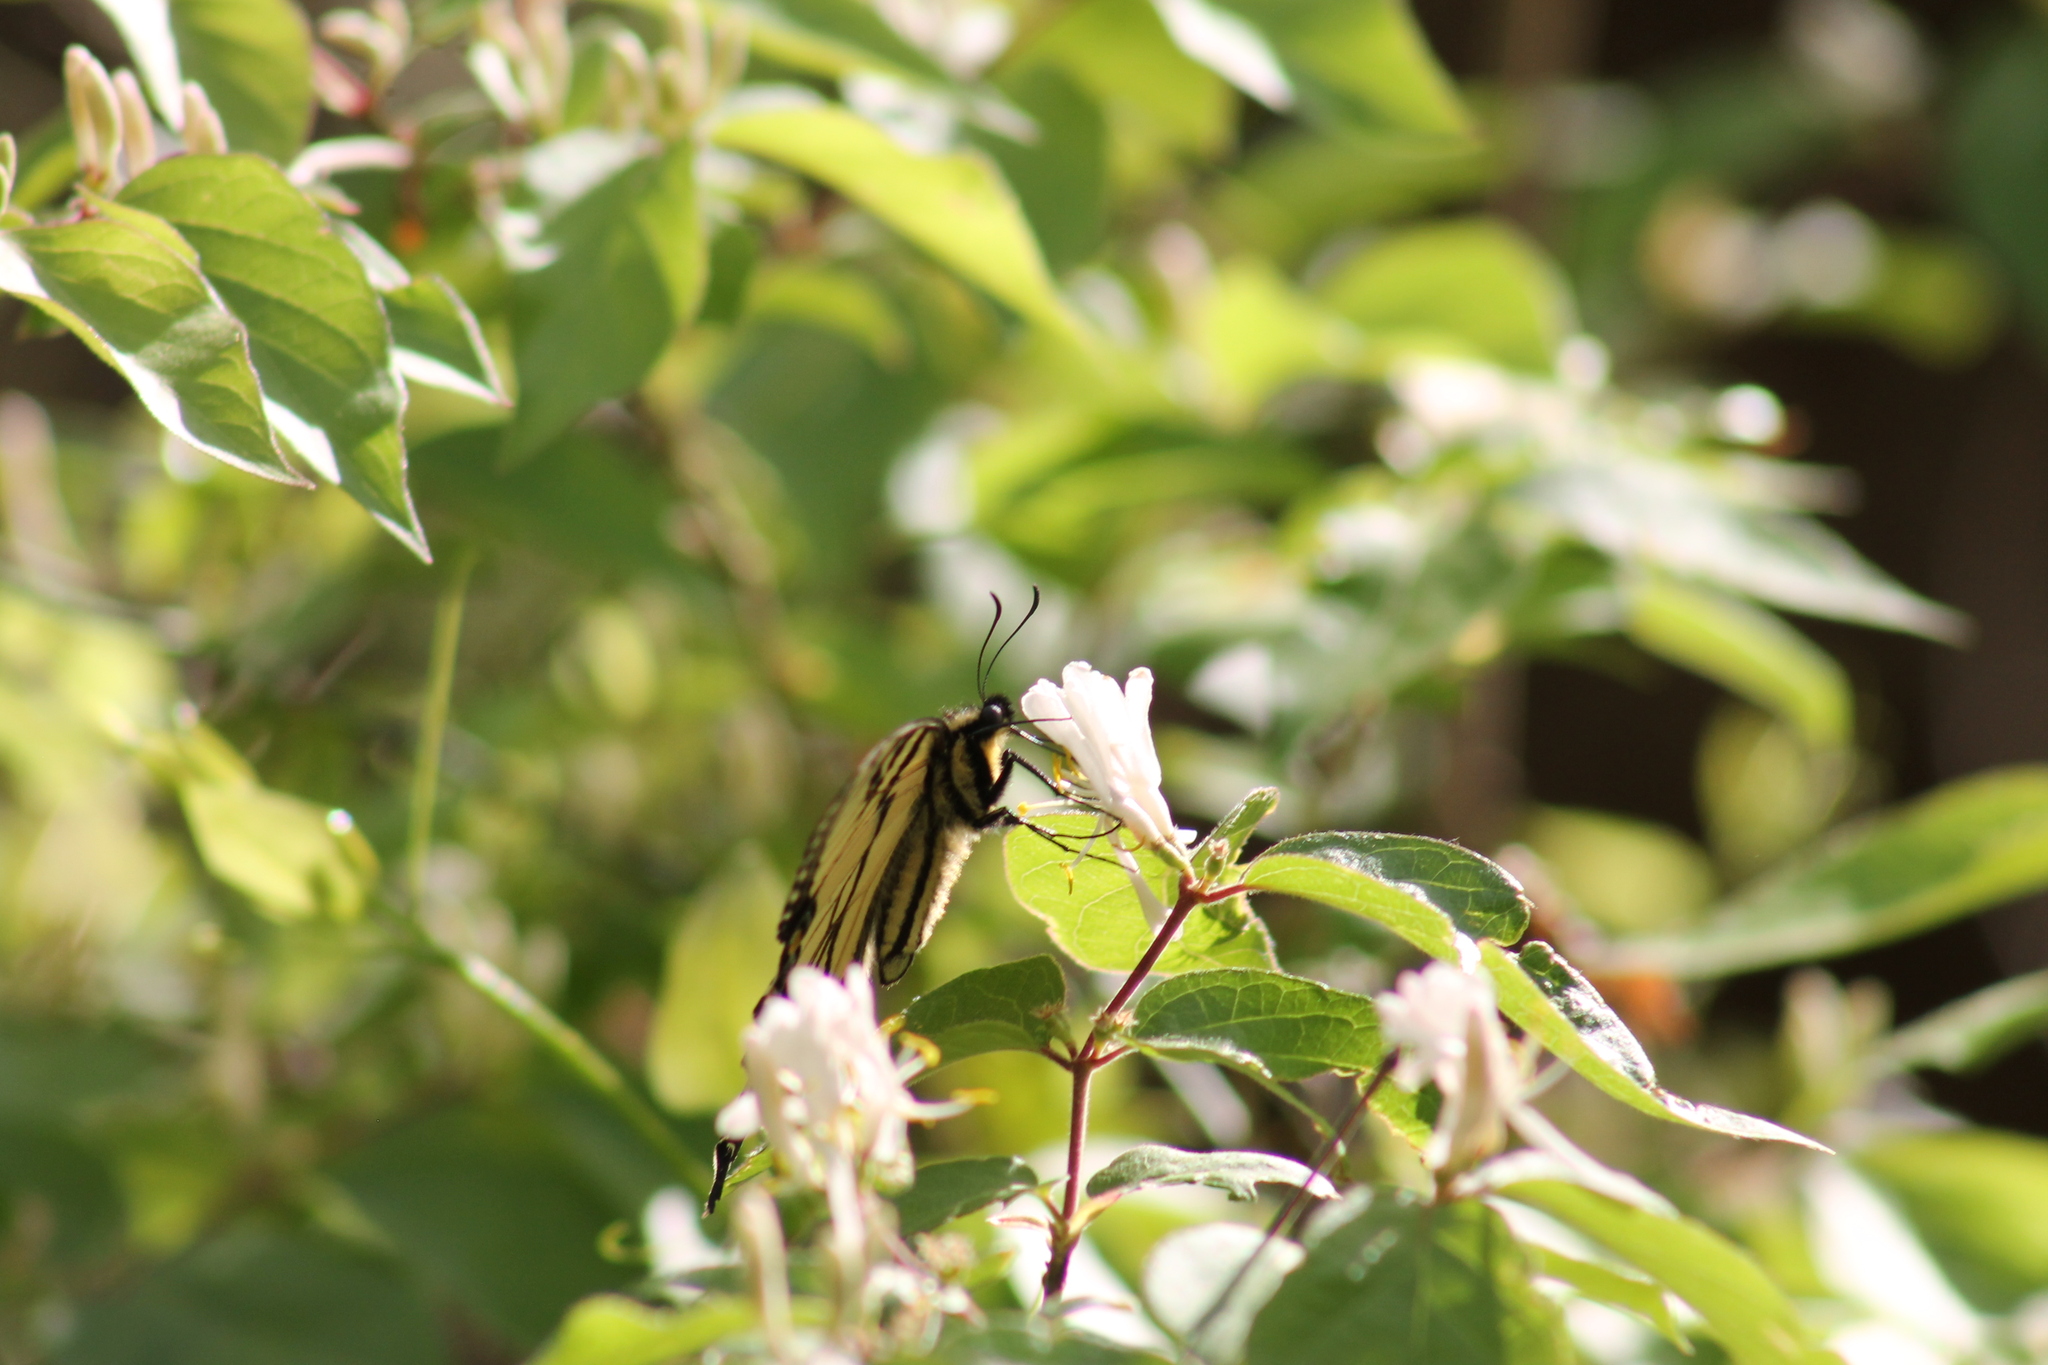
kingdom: Animalia
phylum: Arthropoda
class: Insecta
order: Lepidoptera
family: Papilionidae
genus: Papilio
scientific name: Papilio glaucus
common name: Tiger swallowtail
